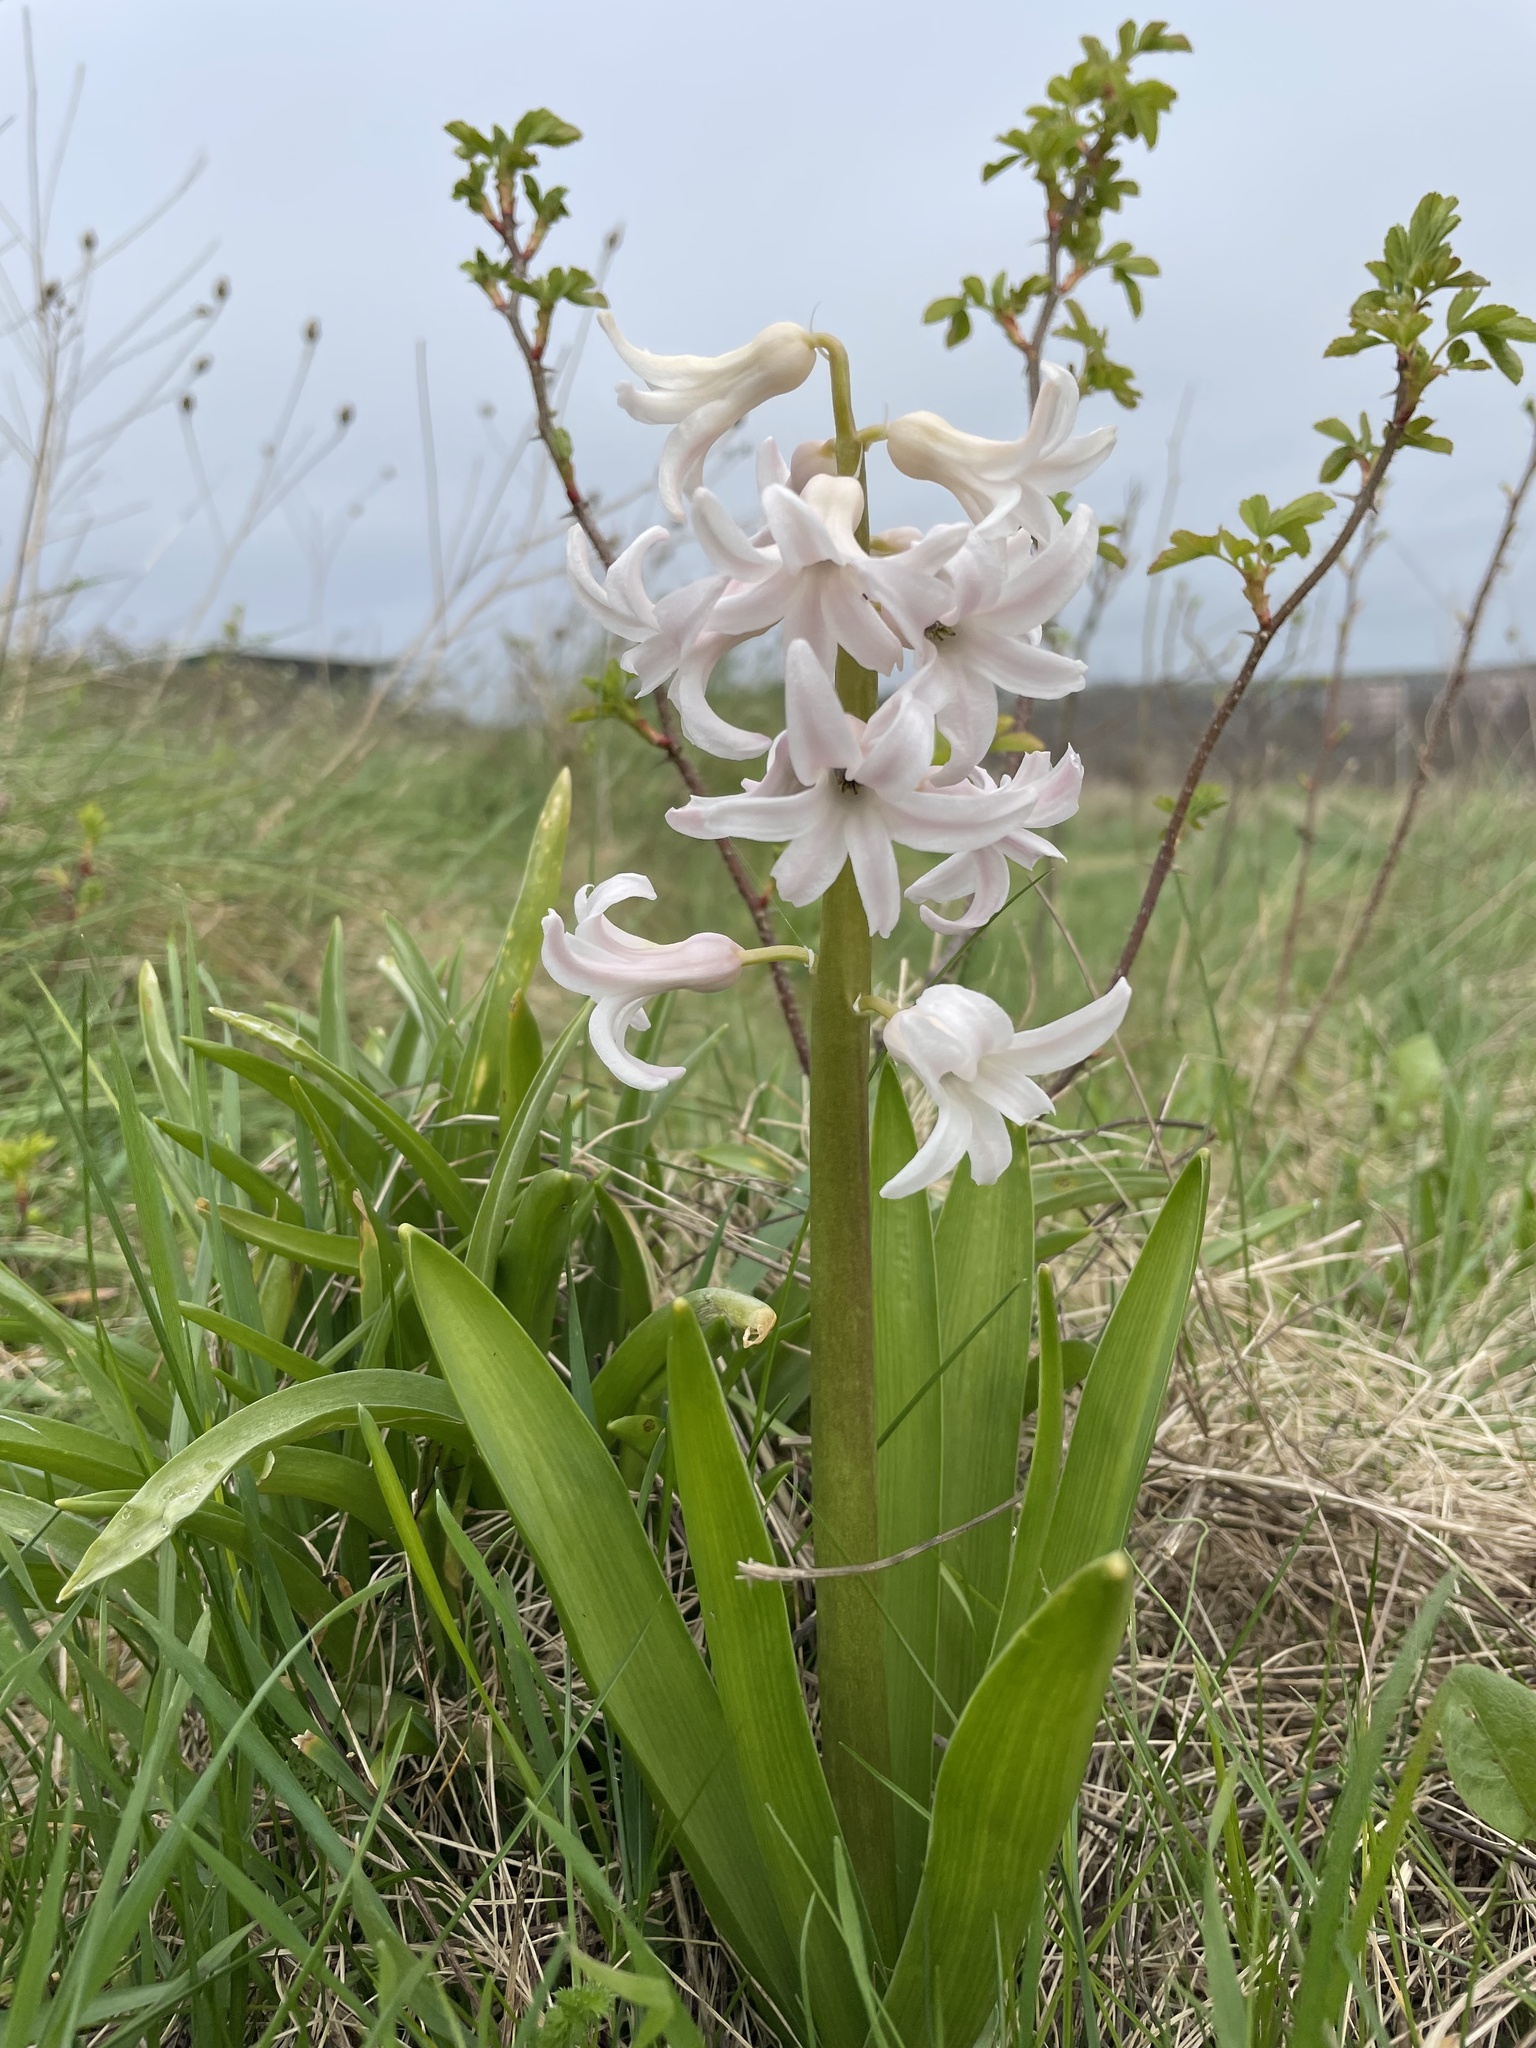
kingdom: Plantae
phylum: Tracheophyta
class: Liliopsida
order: Asparagales
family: Asparagaceae
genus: Hyacinthus
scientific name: Hyacinthus orientalis
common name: Hyacinth
